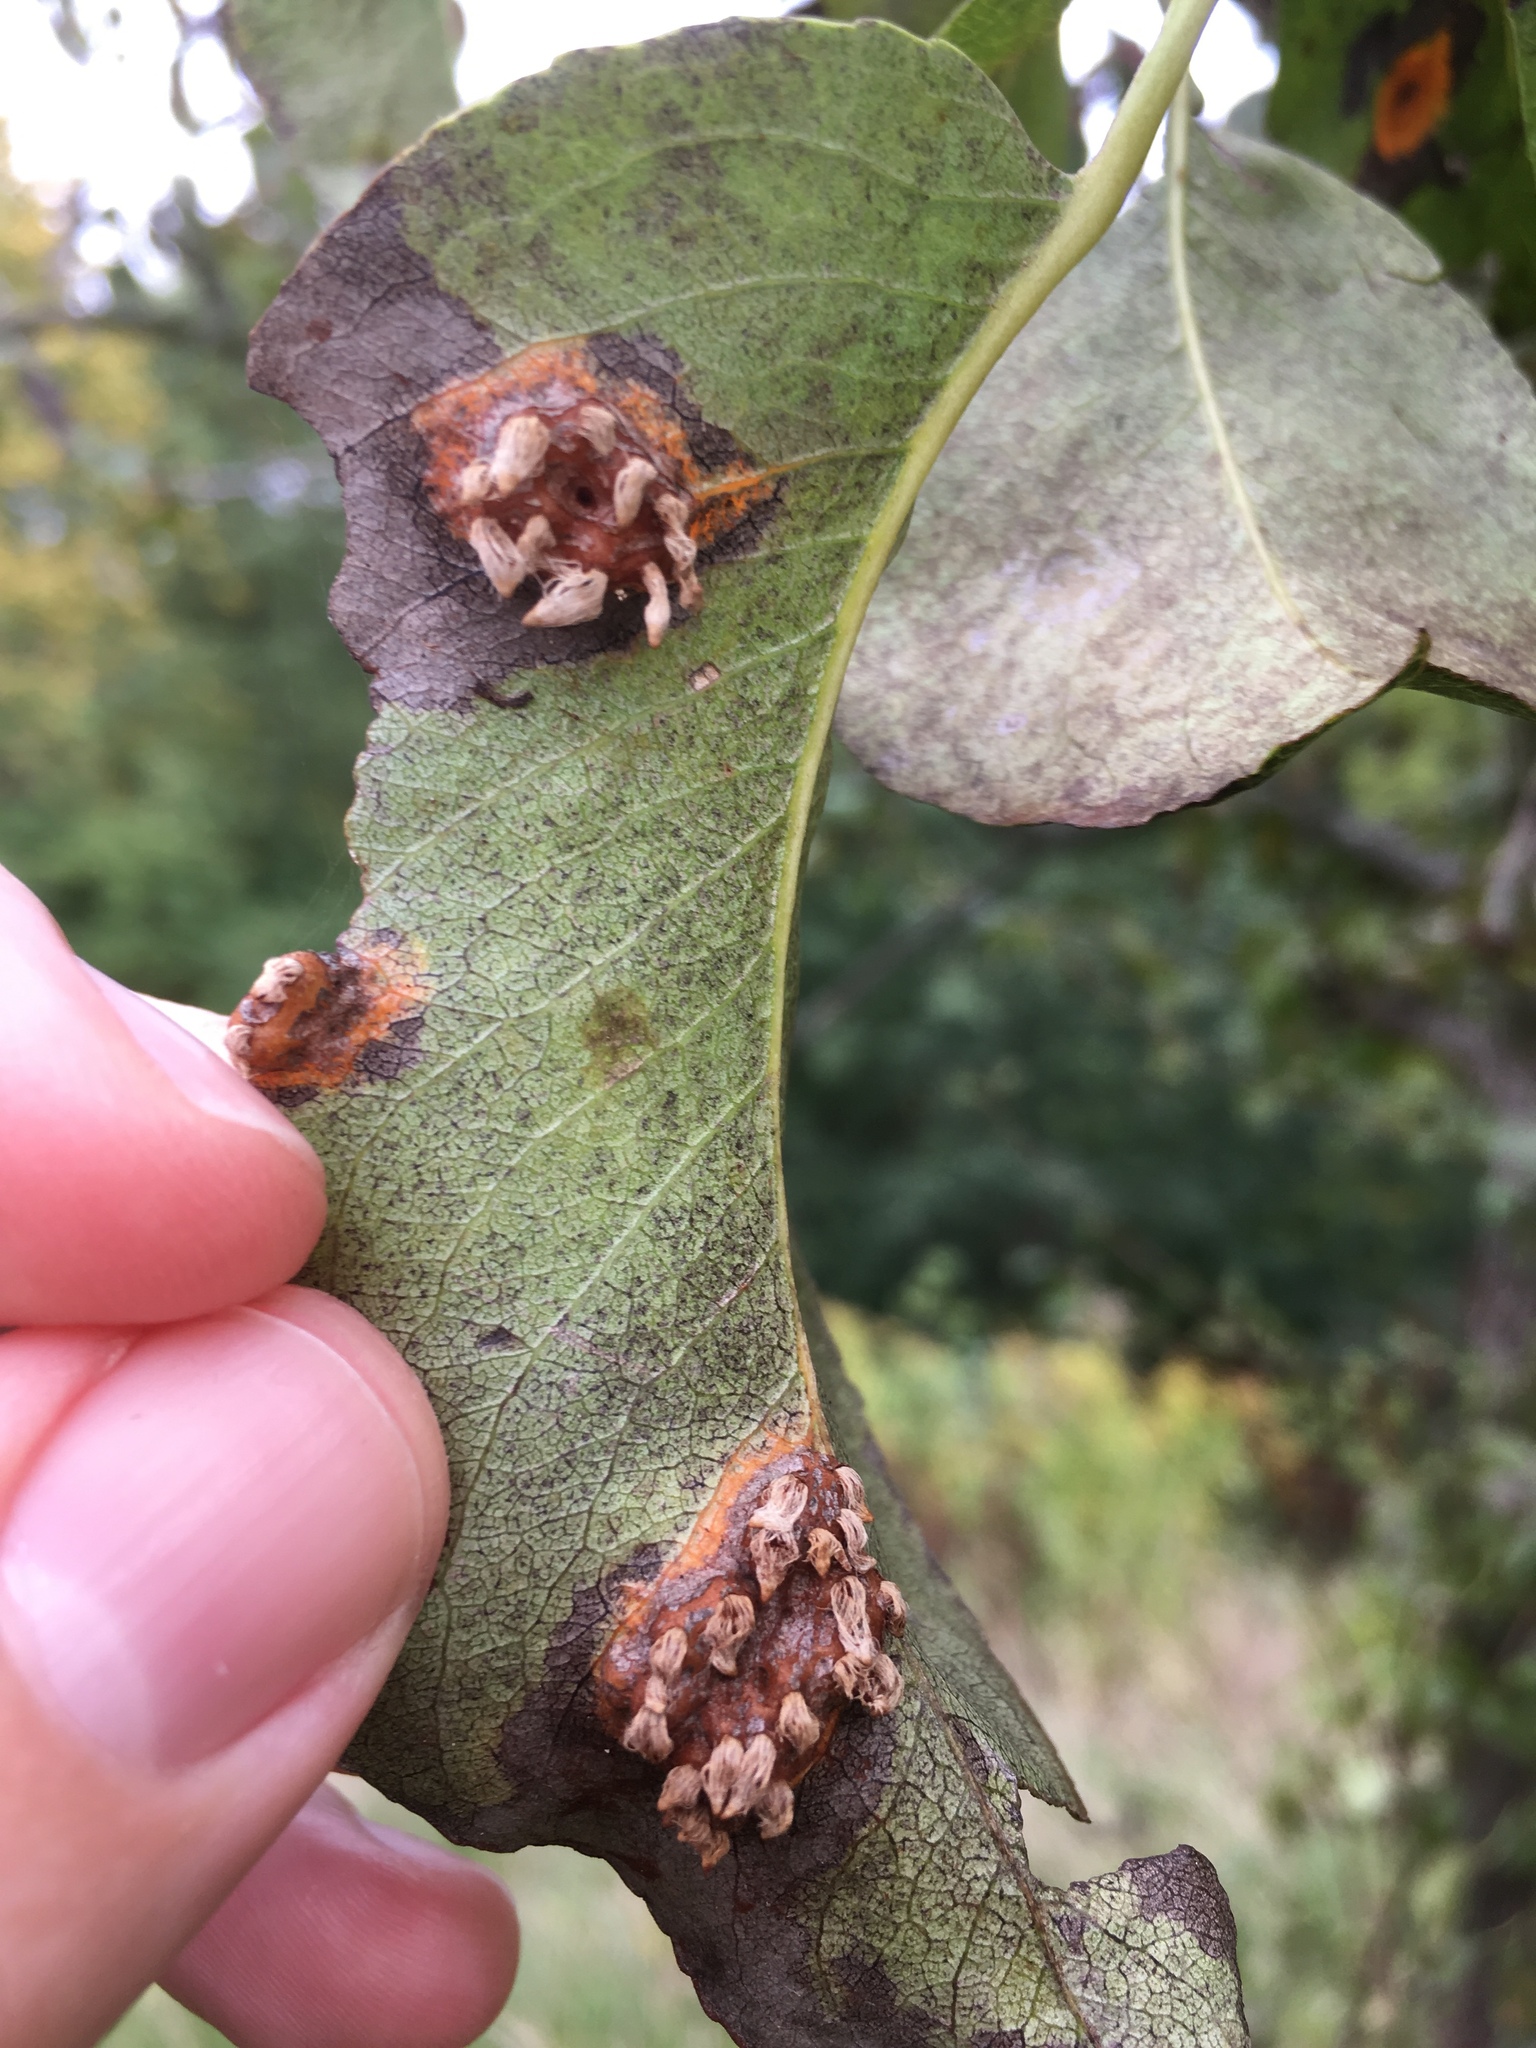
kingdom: Fungi
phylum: Basidiomycota
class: Pucciniomycetes
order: Pucciniales
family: Gymnosporangiaceae
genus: Gymnosporangium
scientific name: Gymnosporangium sabinae
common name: Pear trellis rust fungus
